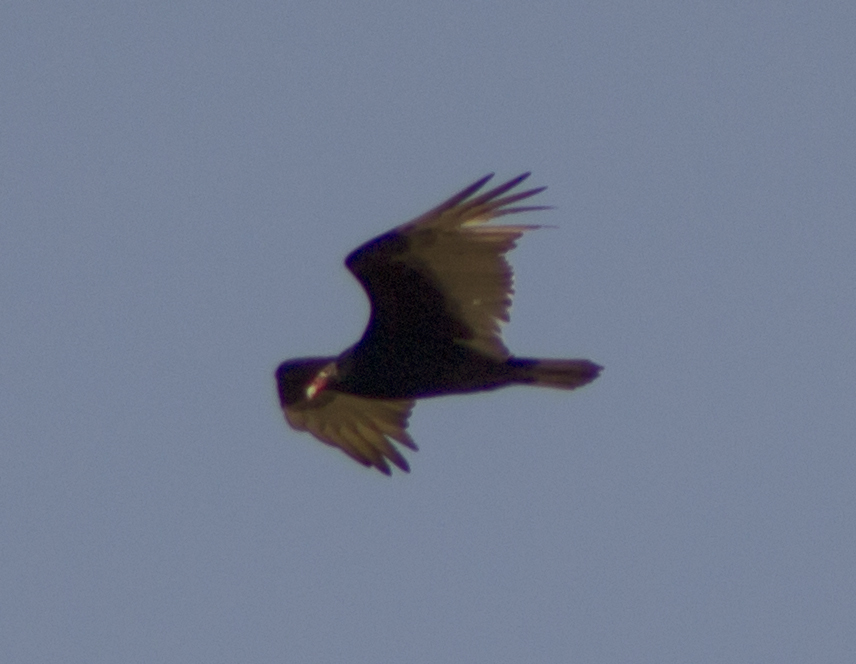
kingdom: Animalia
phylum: Chordata
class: Aves
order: Accipitriformes
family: Cathartidae
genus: Cathartes
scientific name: Cathartes aura
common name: Turkey vulture
